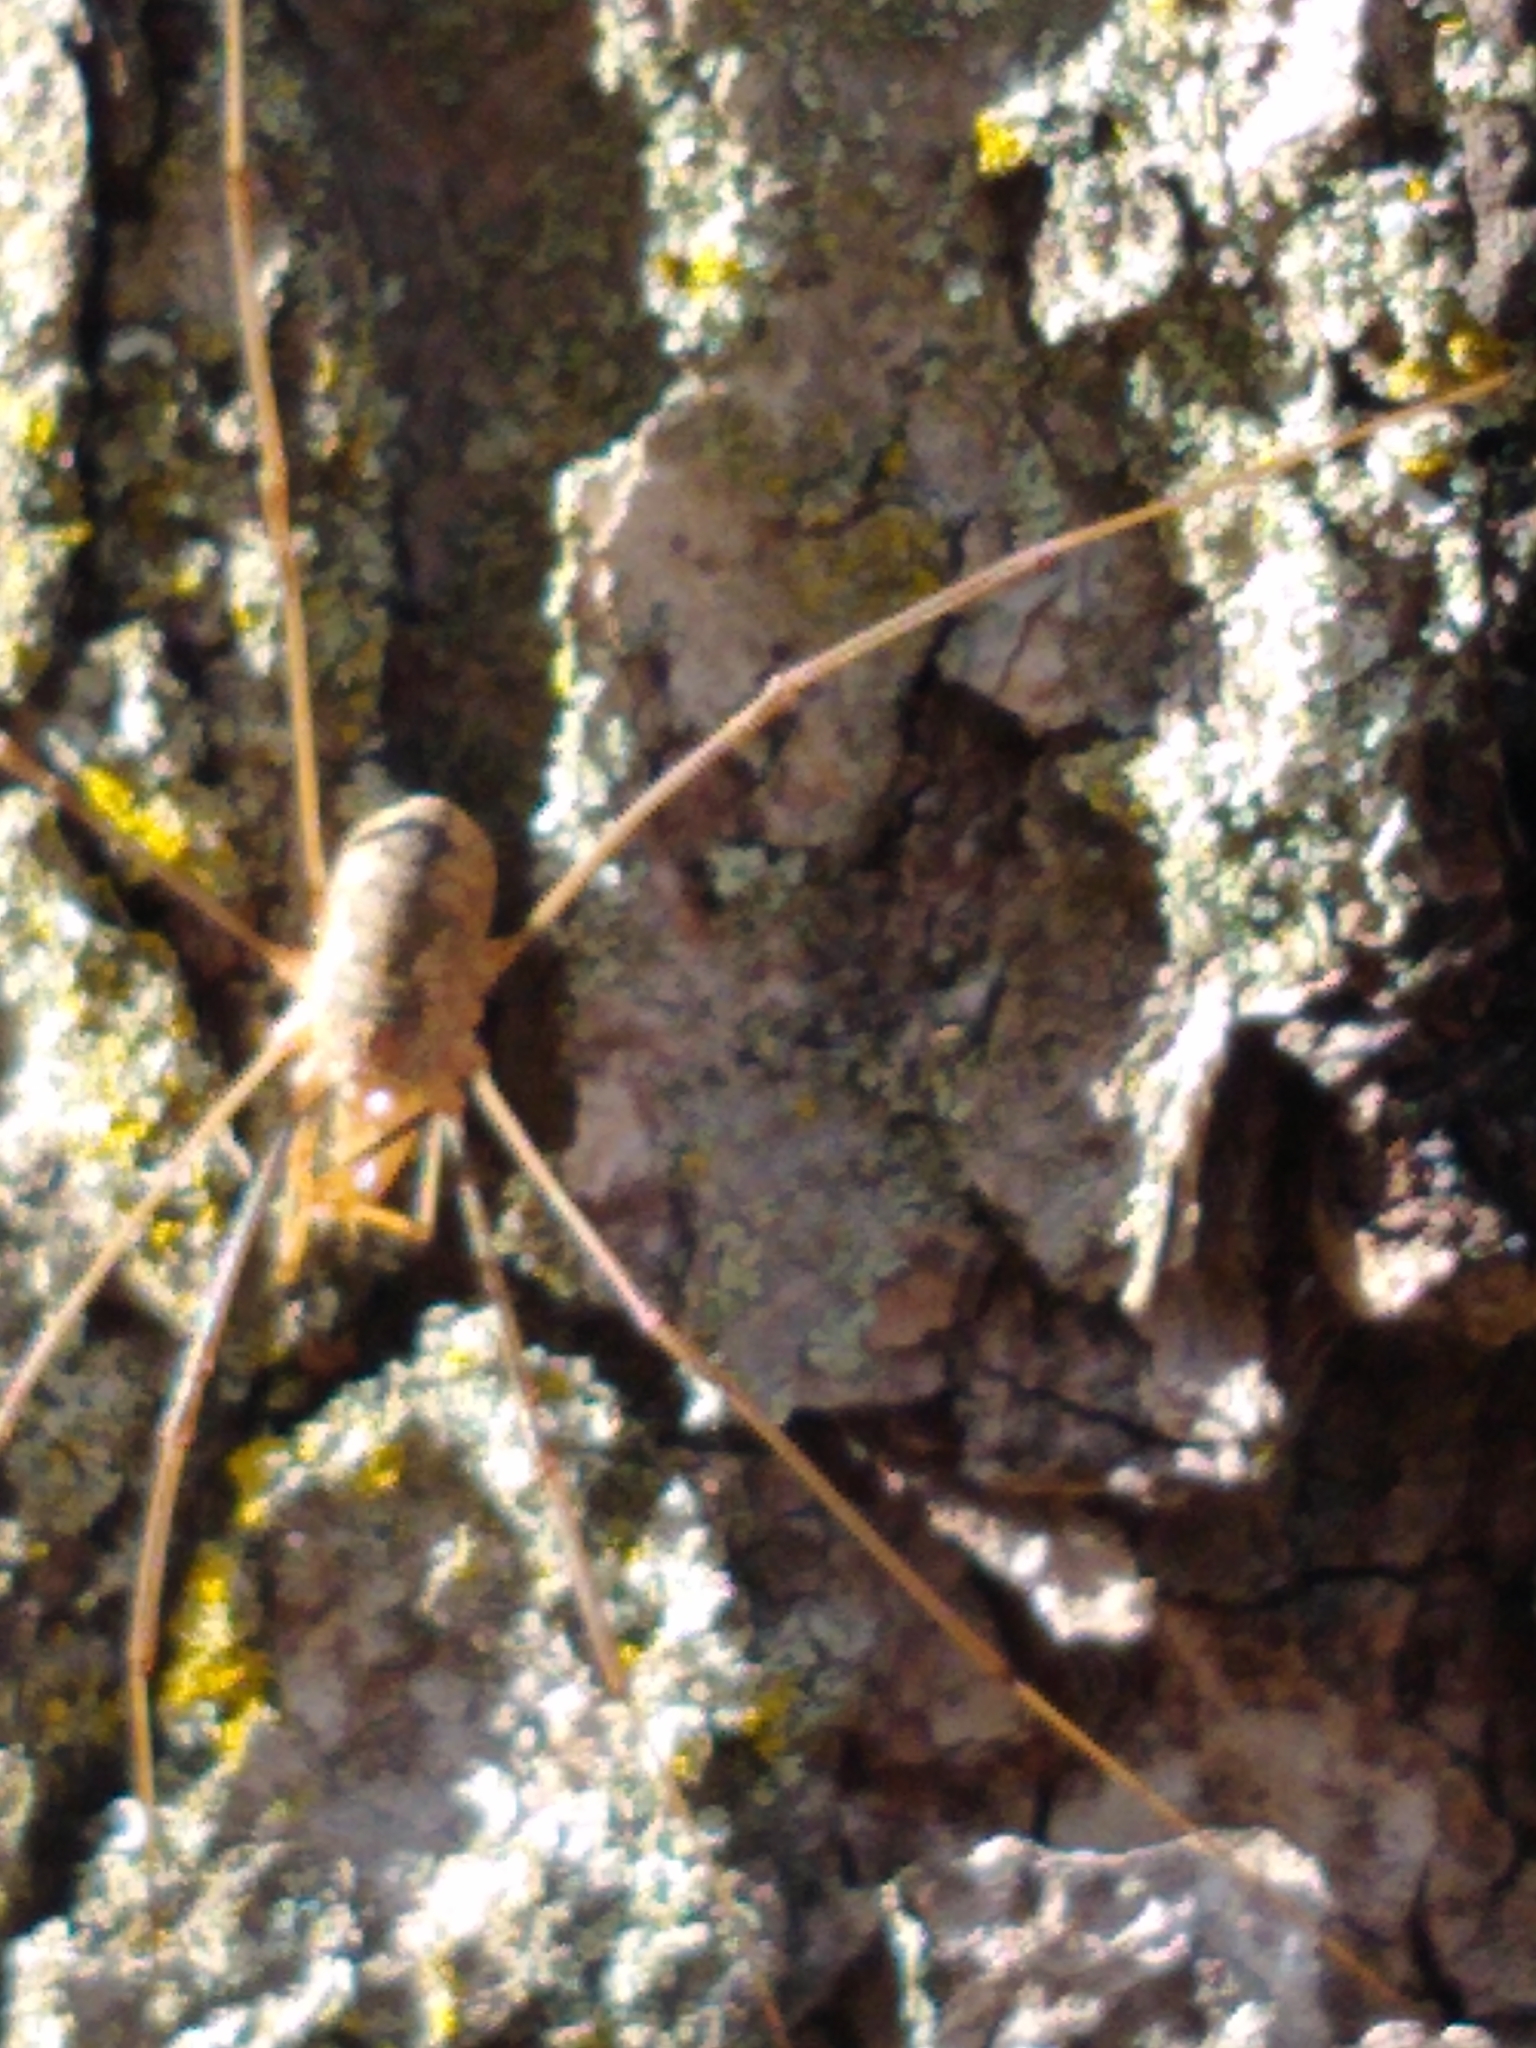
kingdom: Animalia
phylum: Arthropoda
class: Arachnida
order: Opiliones
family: Phalangiidae
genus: Phalangium
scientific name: Phalangium opilio
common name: Daddy longleg
